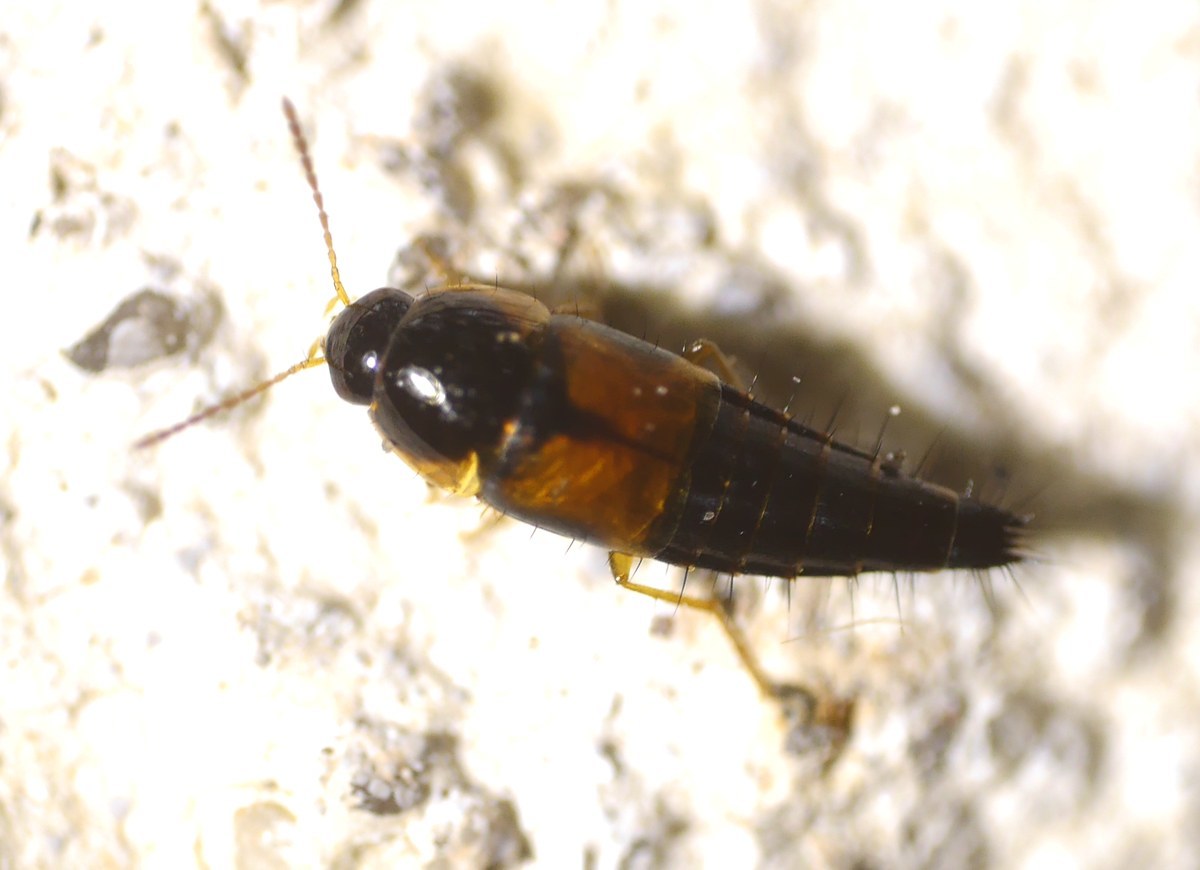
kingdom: Animalia
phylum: Arthropoda
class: Insecta
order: Coleoptera
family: Staphylinidae
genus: Tachyporus
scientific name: Tachyporus hypnorum
